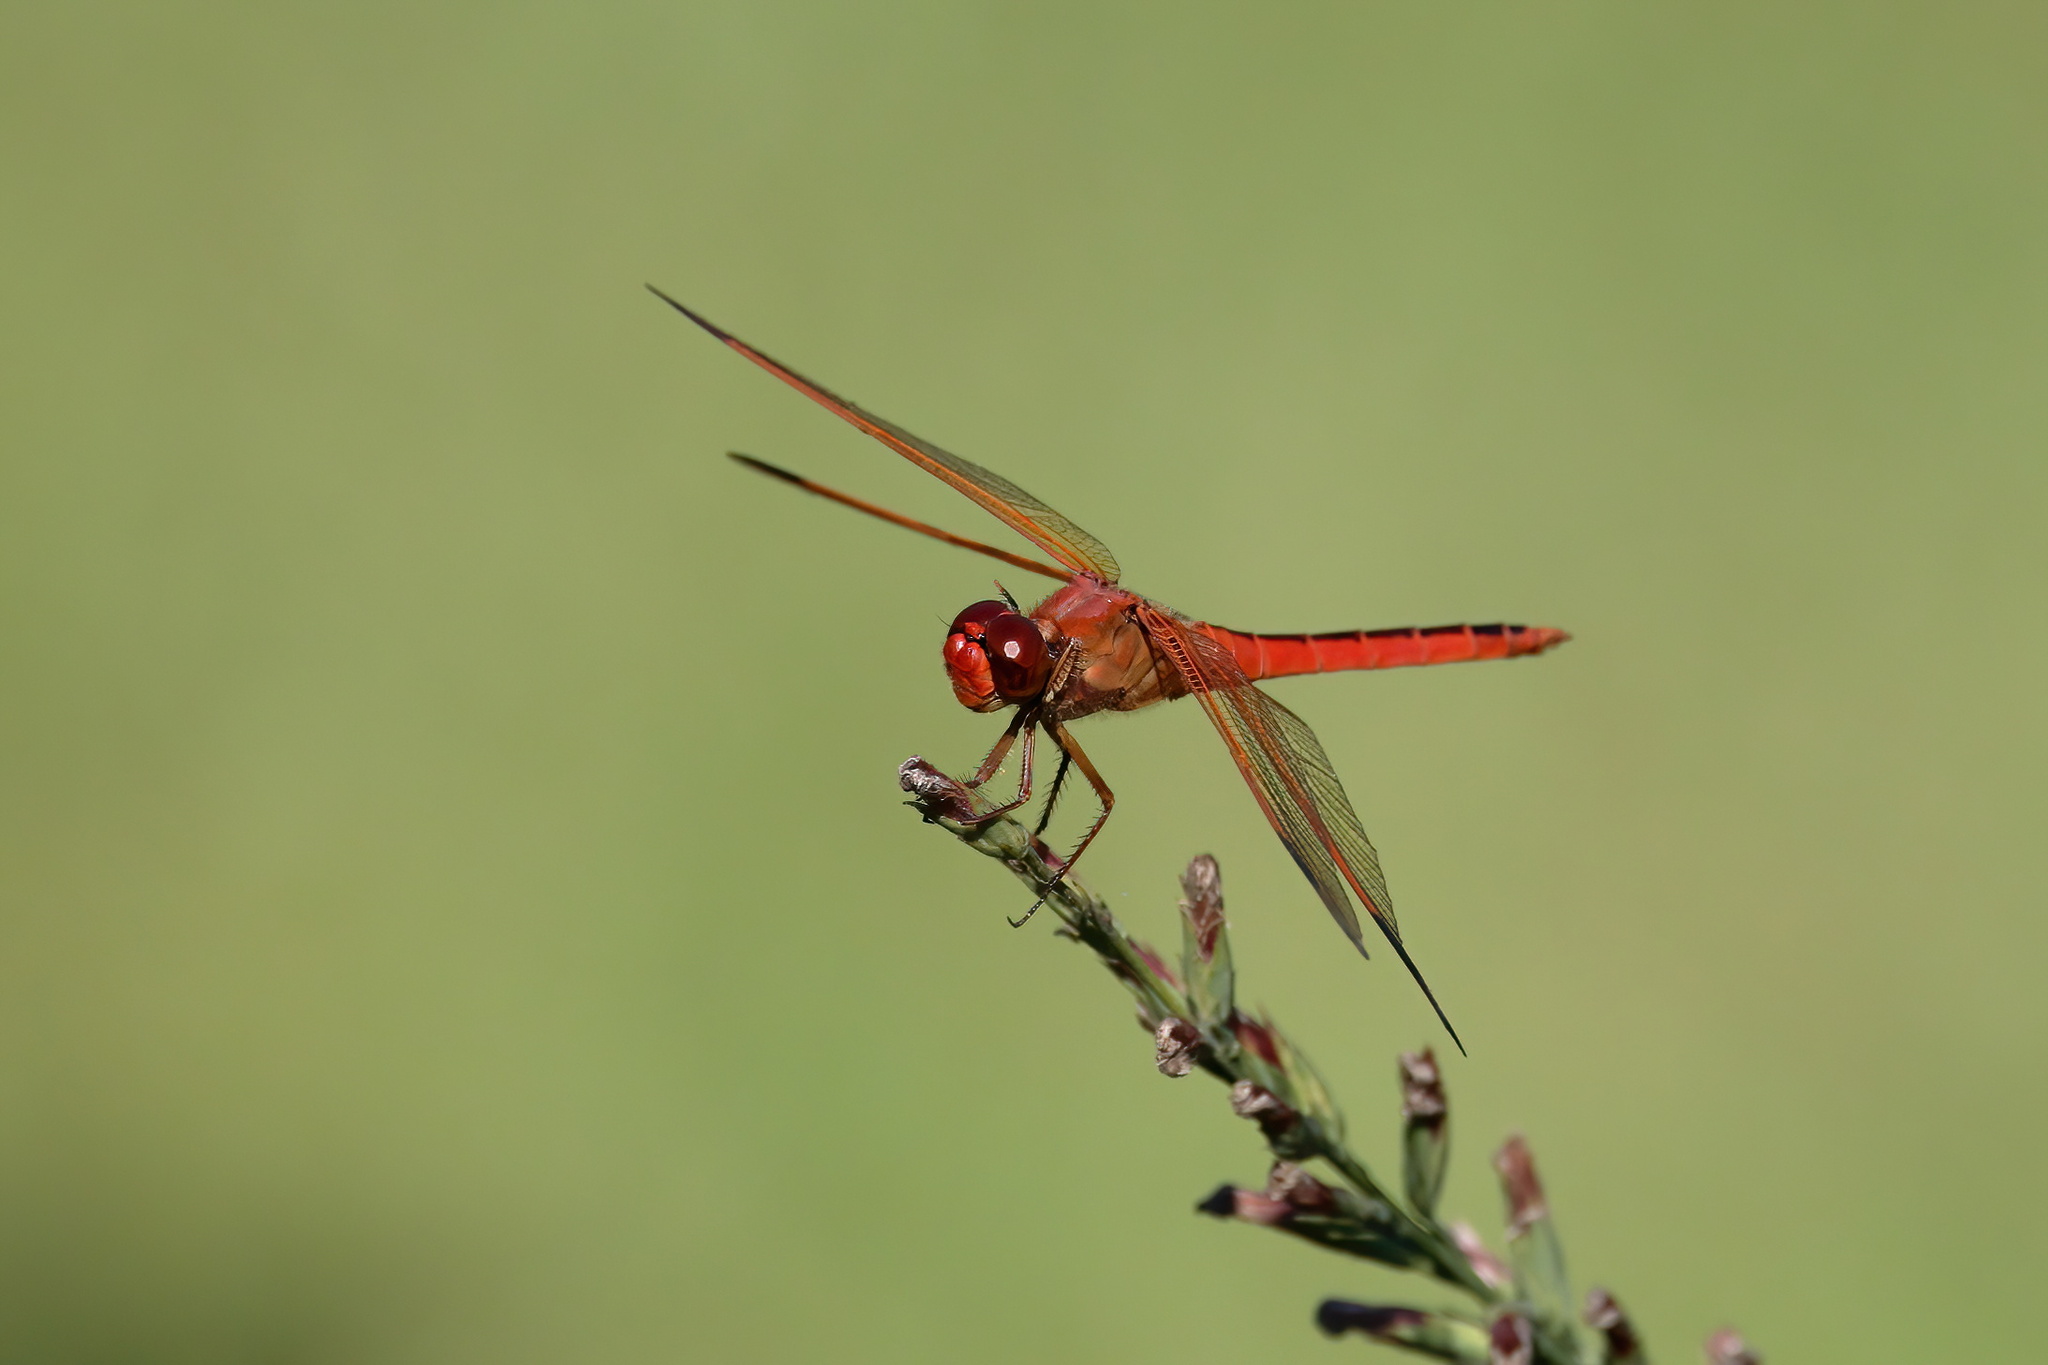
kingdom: Animalia
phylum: Arthropoda
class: Insecta
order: Odonata
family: Libellulidae
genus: Libellula
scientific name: Libellula needhami
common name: Needham's skimmer
